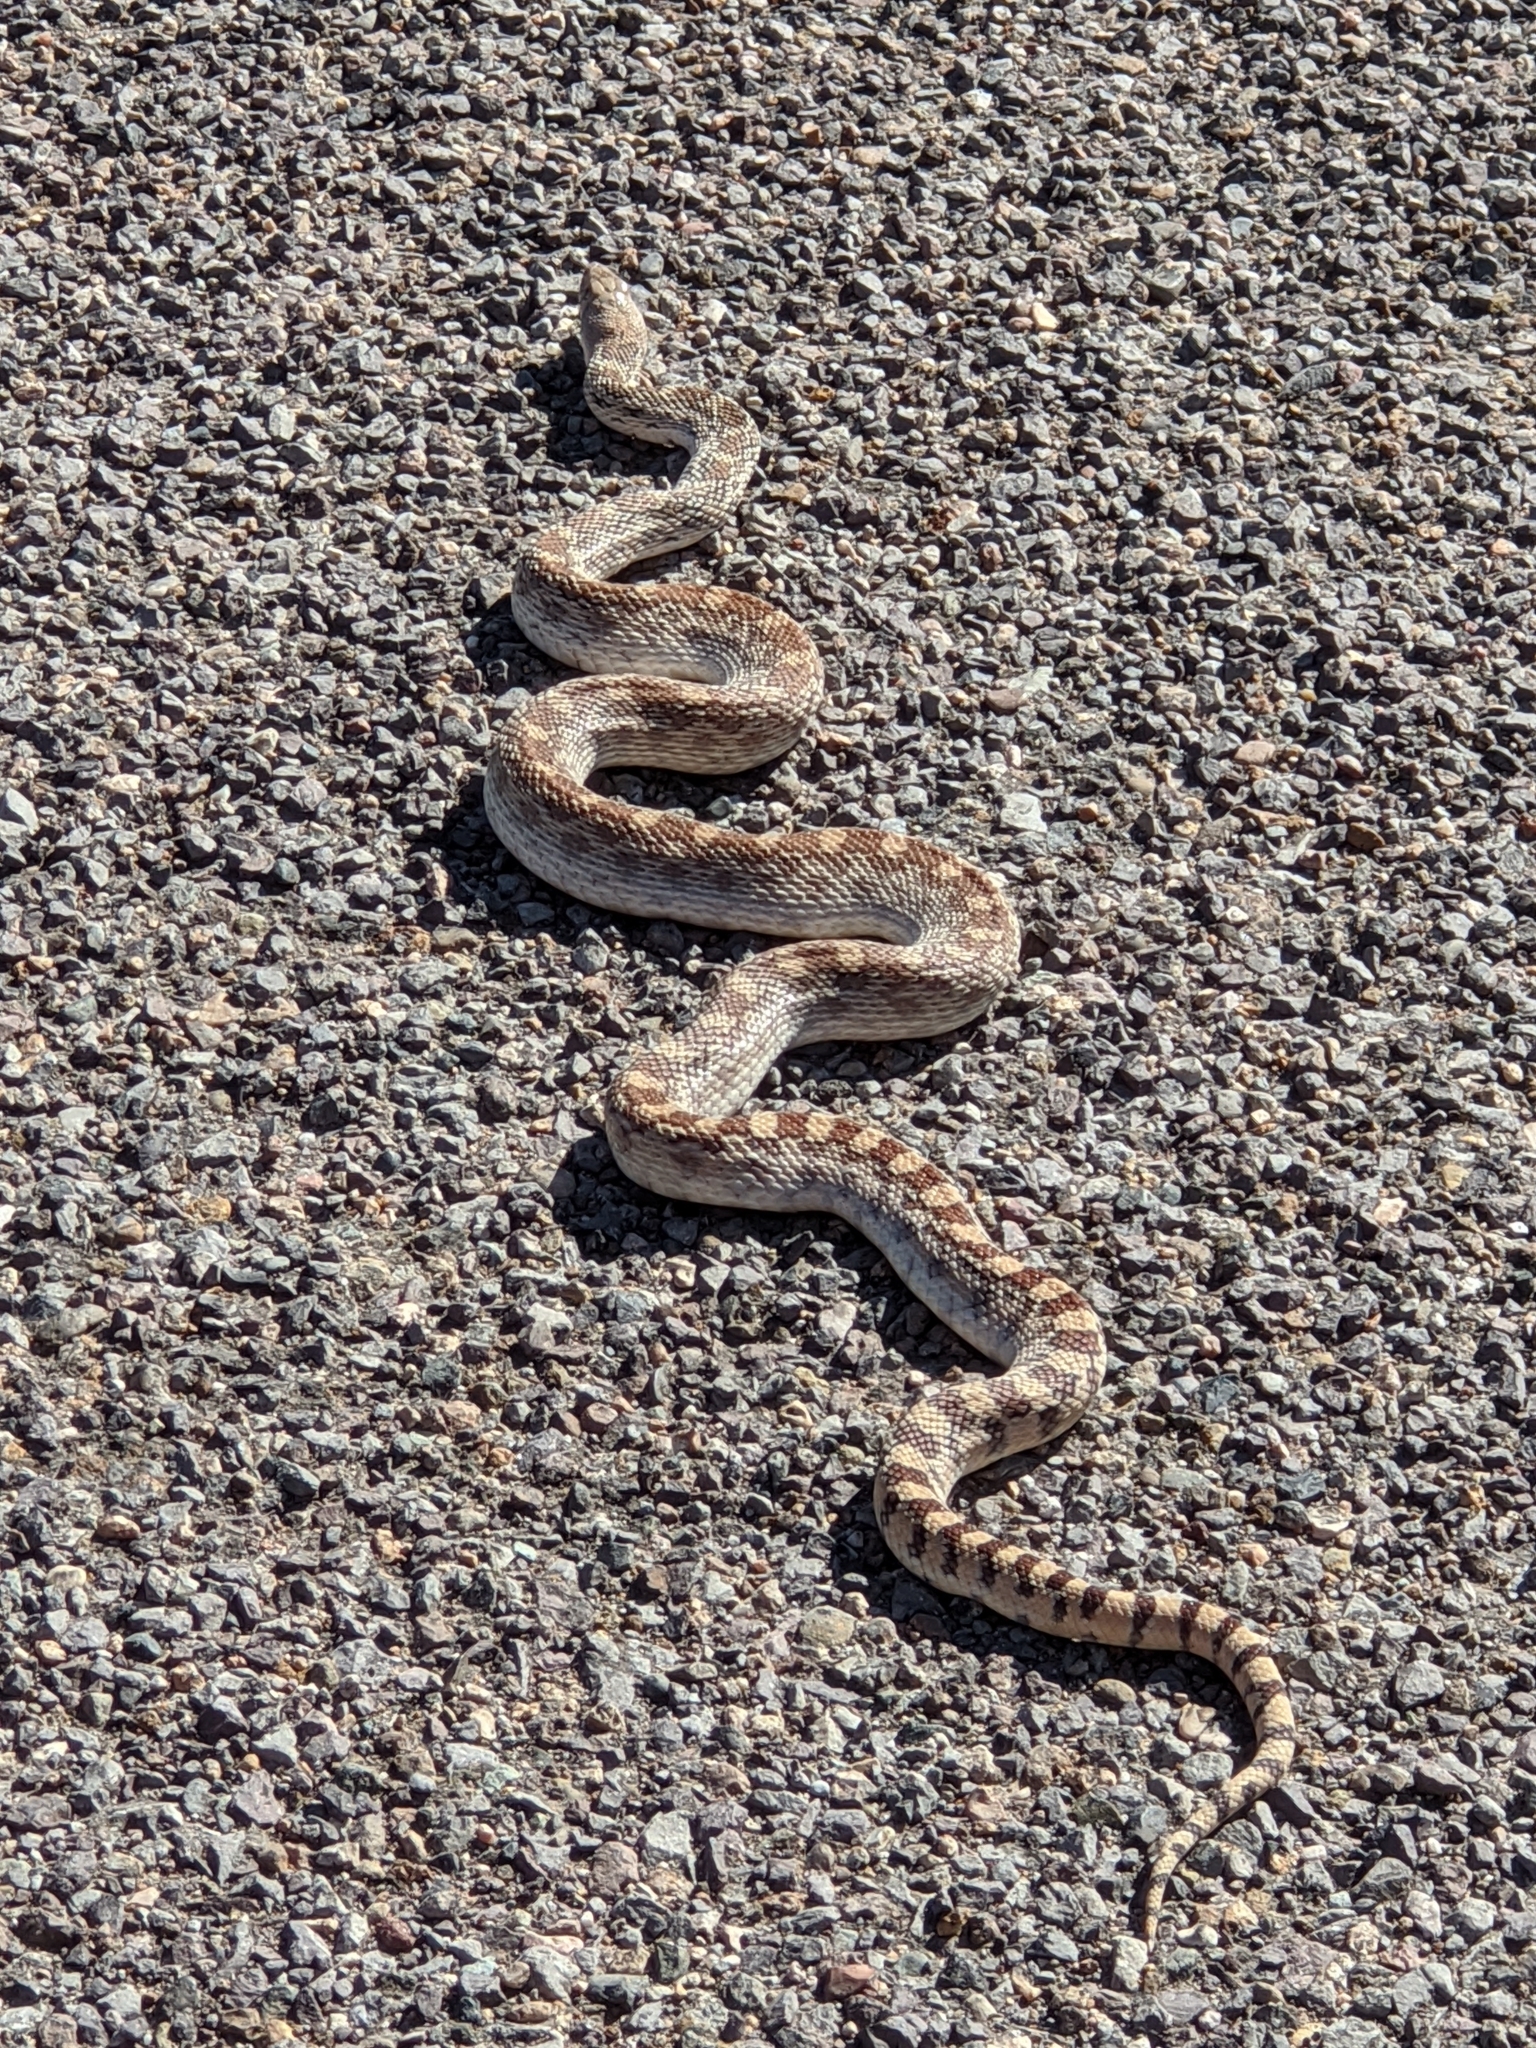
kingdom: Animalia
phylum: Chordata
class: Squamata
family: Colubridae
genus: Pituophis
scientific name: Pituophis catenifer
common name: Gopher snake
